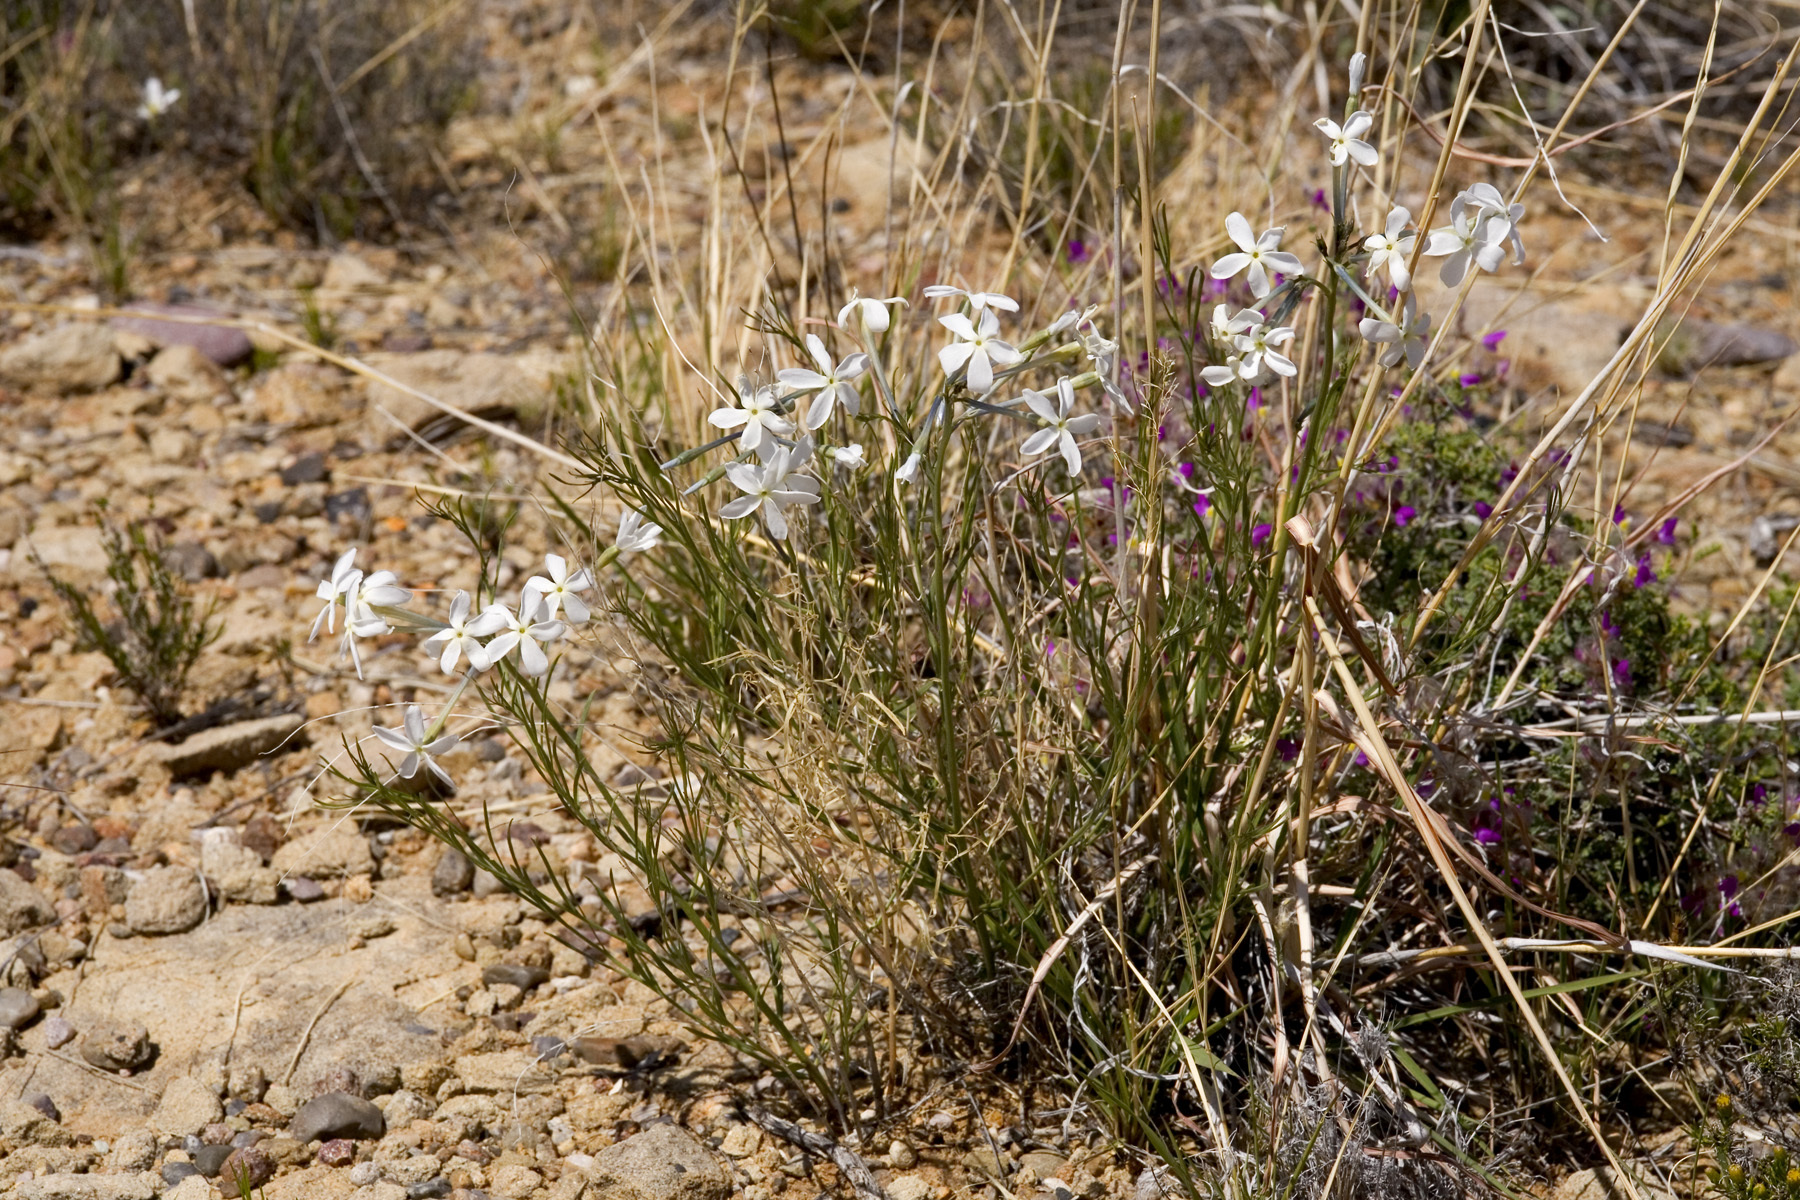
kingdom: Plantae
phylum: Tracheophyta
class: Magnoliopsida
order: Gentianales
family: Apocynaceae
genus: Amsonia
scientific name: Amsonia longiflora
